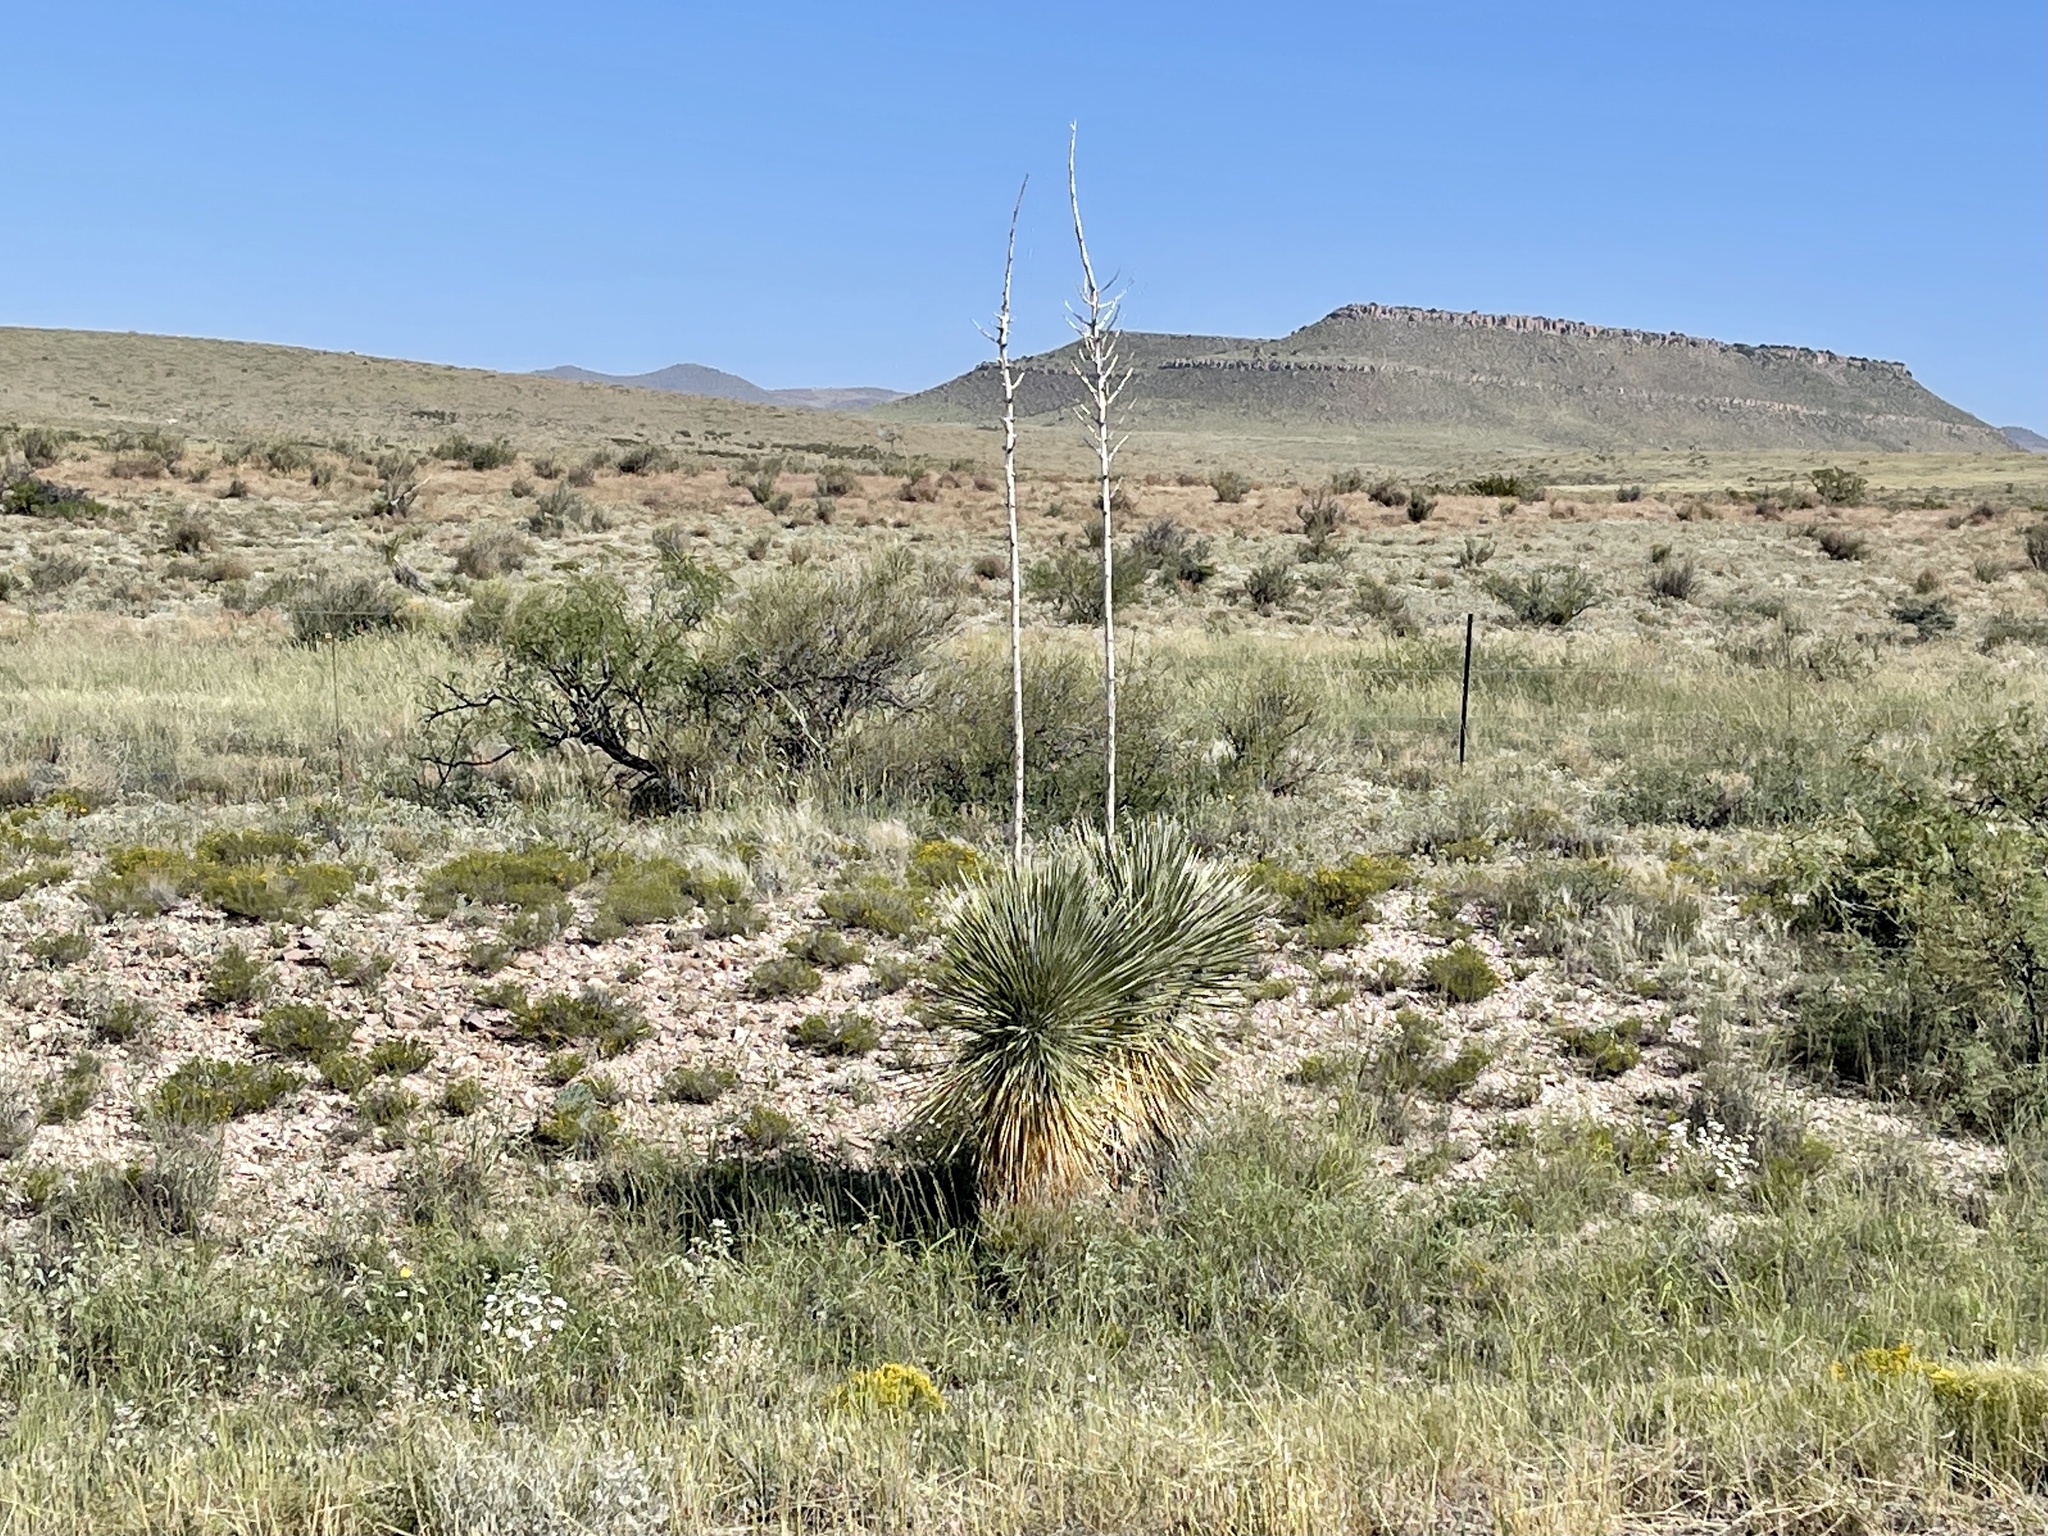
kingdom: Plantae
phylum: Tracheophyta
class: Liliopsida
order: Asparagales
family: Asparagaceae
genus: Yucca
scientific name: Yucca elata
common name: Palmella
